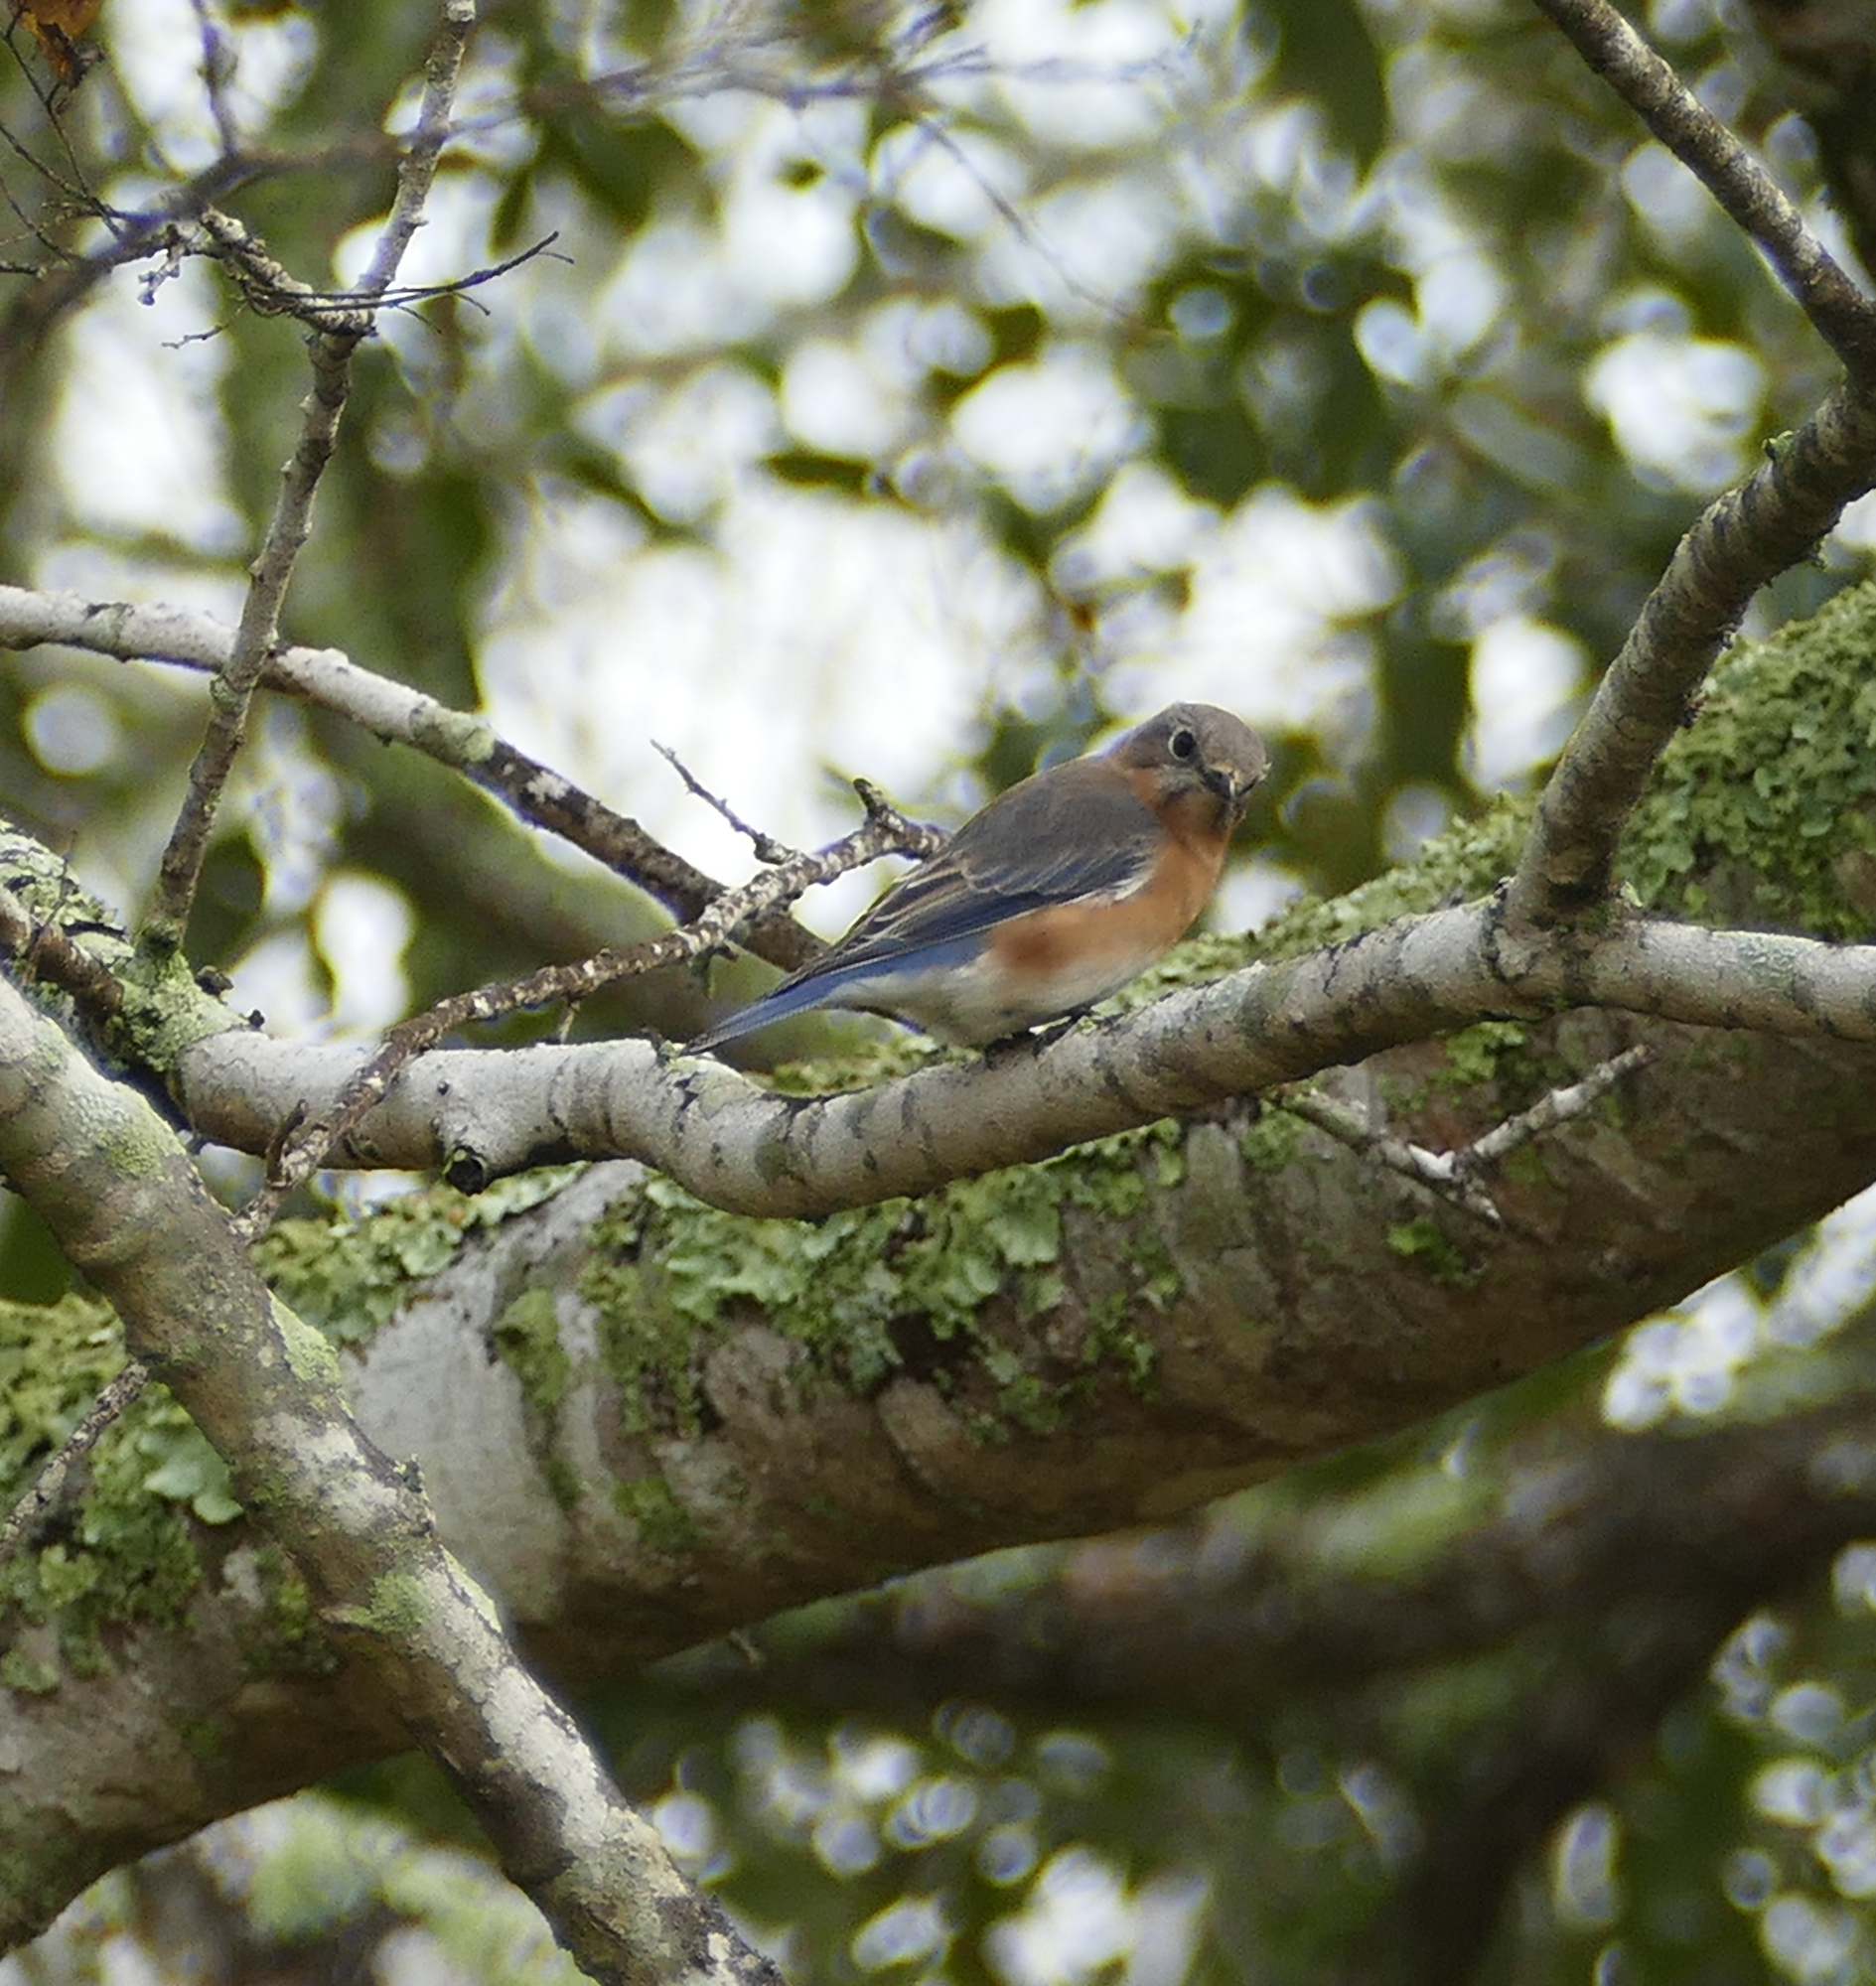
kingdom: Animalia
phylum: Chordata
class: Aves
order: Passeriformes
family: Turdidae
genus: Sialia
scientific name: Sialia sialis
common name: Eastern bluebird
